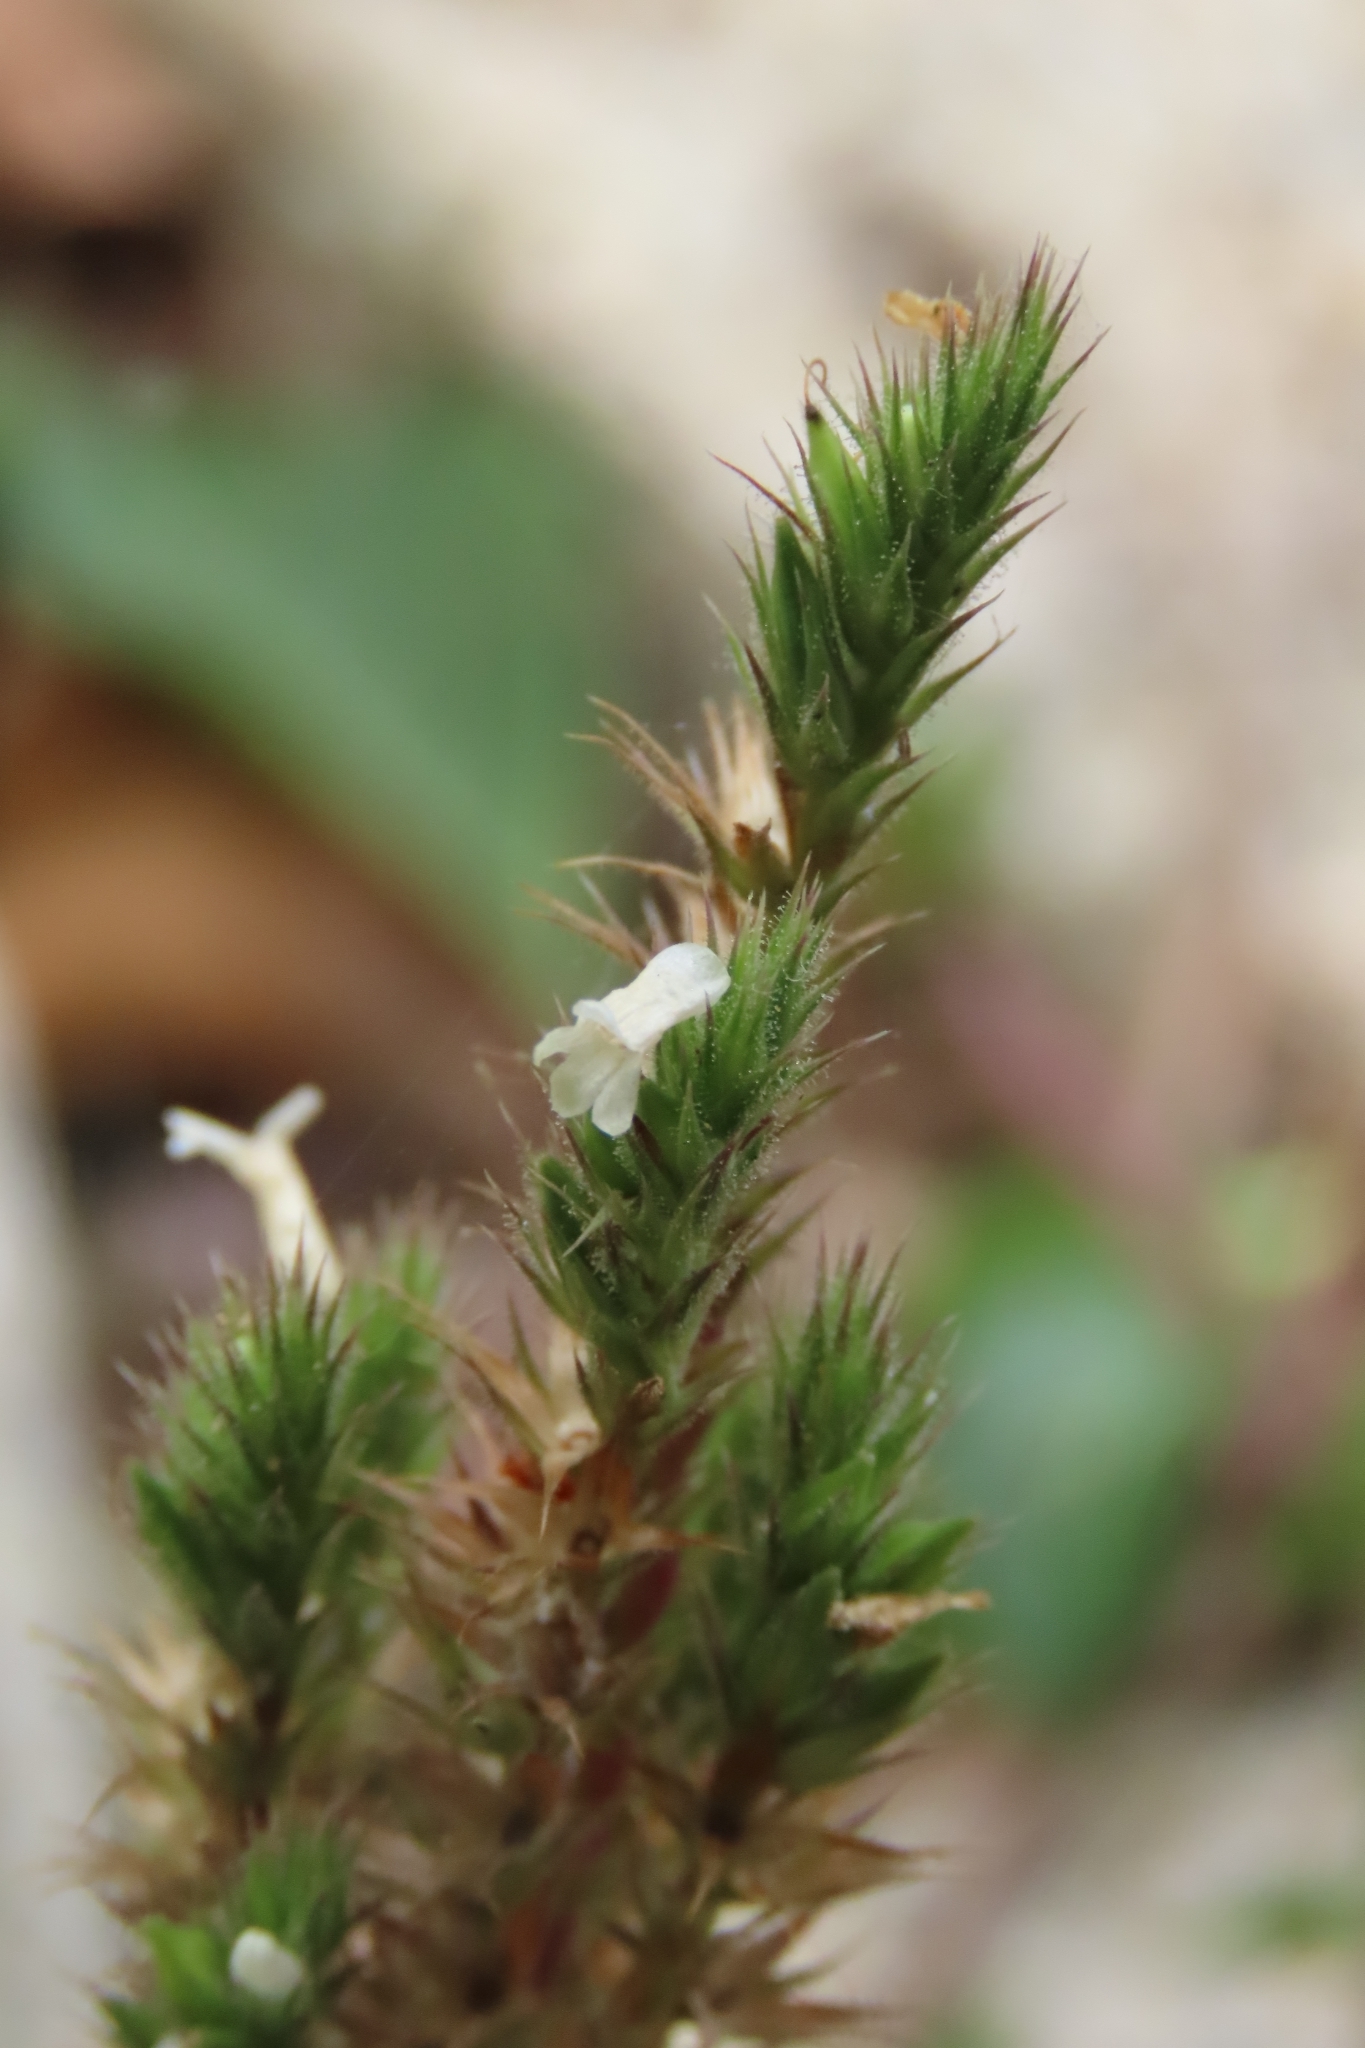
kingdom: Plantae
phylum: Tracheophyta
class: Magnoliopsida
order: Lamiales
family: Acanthaceae
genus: Lepidagathis
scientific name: Lepidagathis inaequalis
